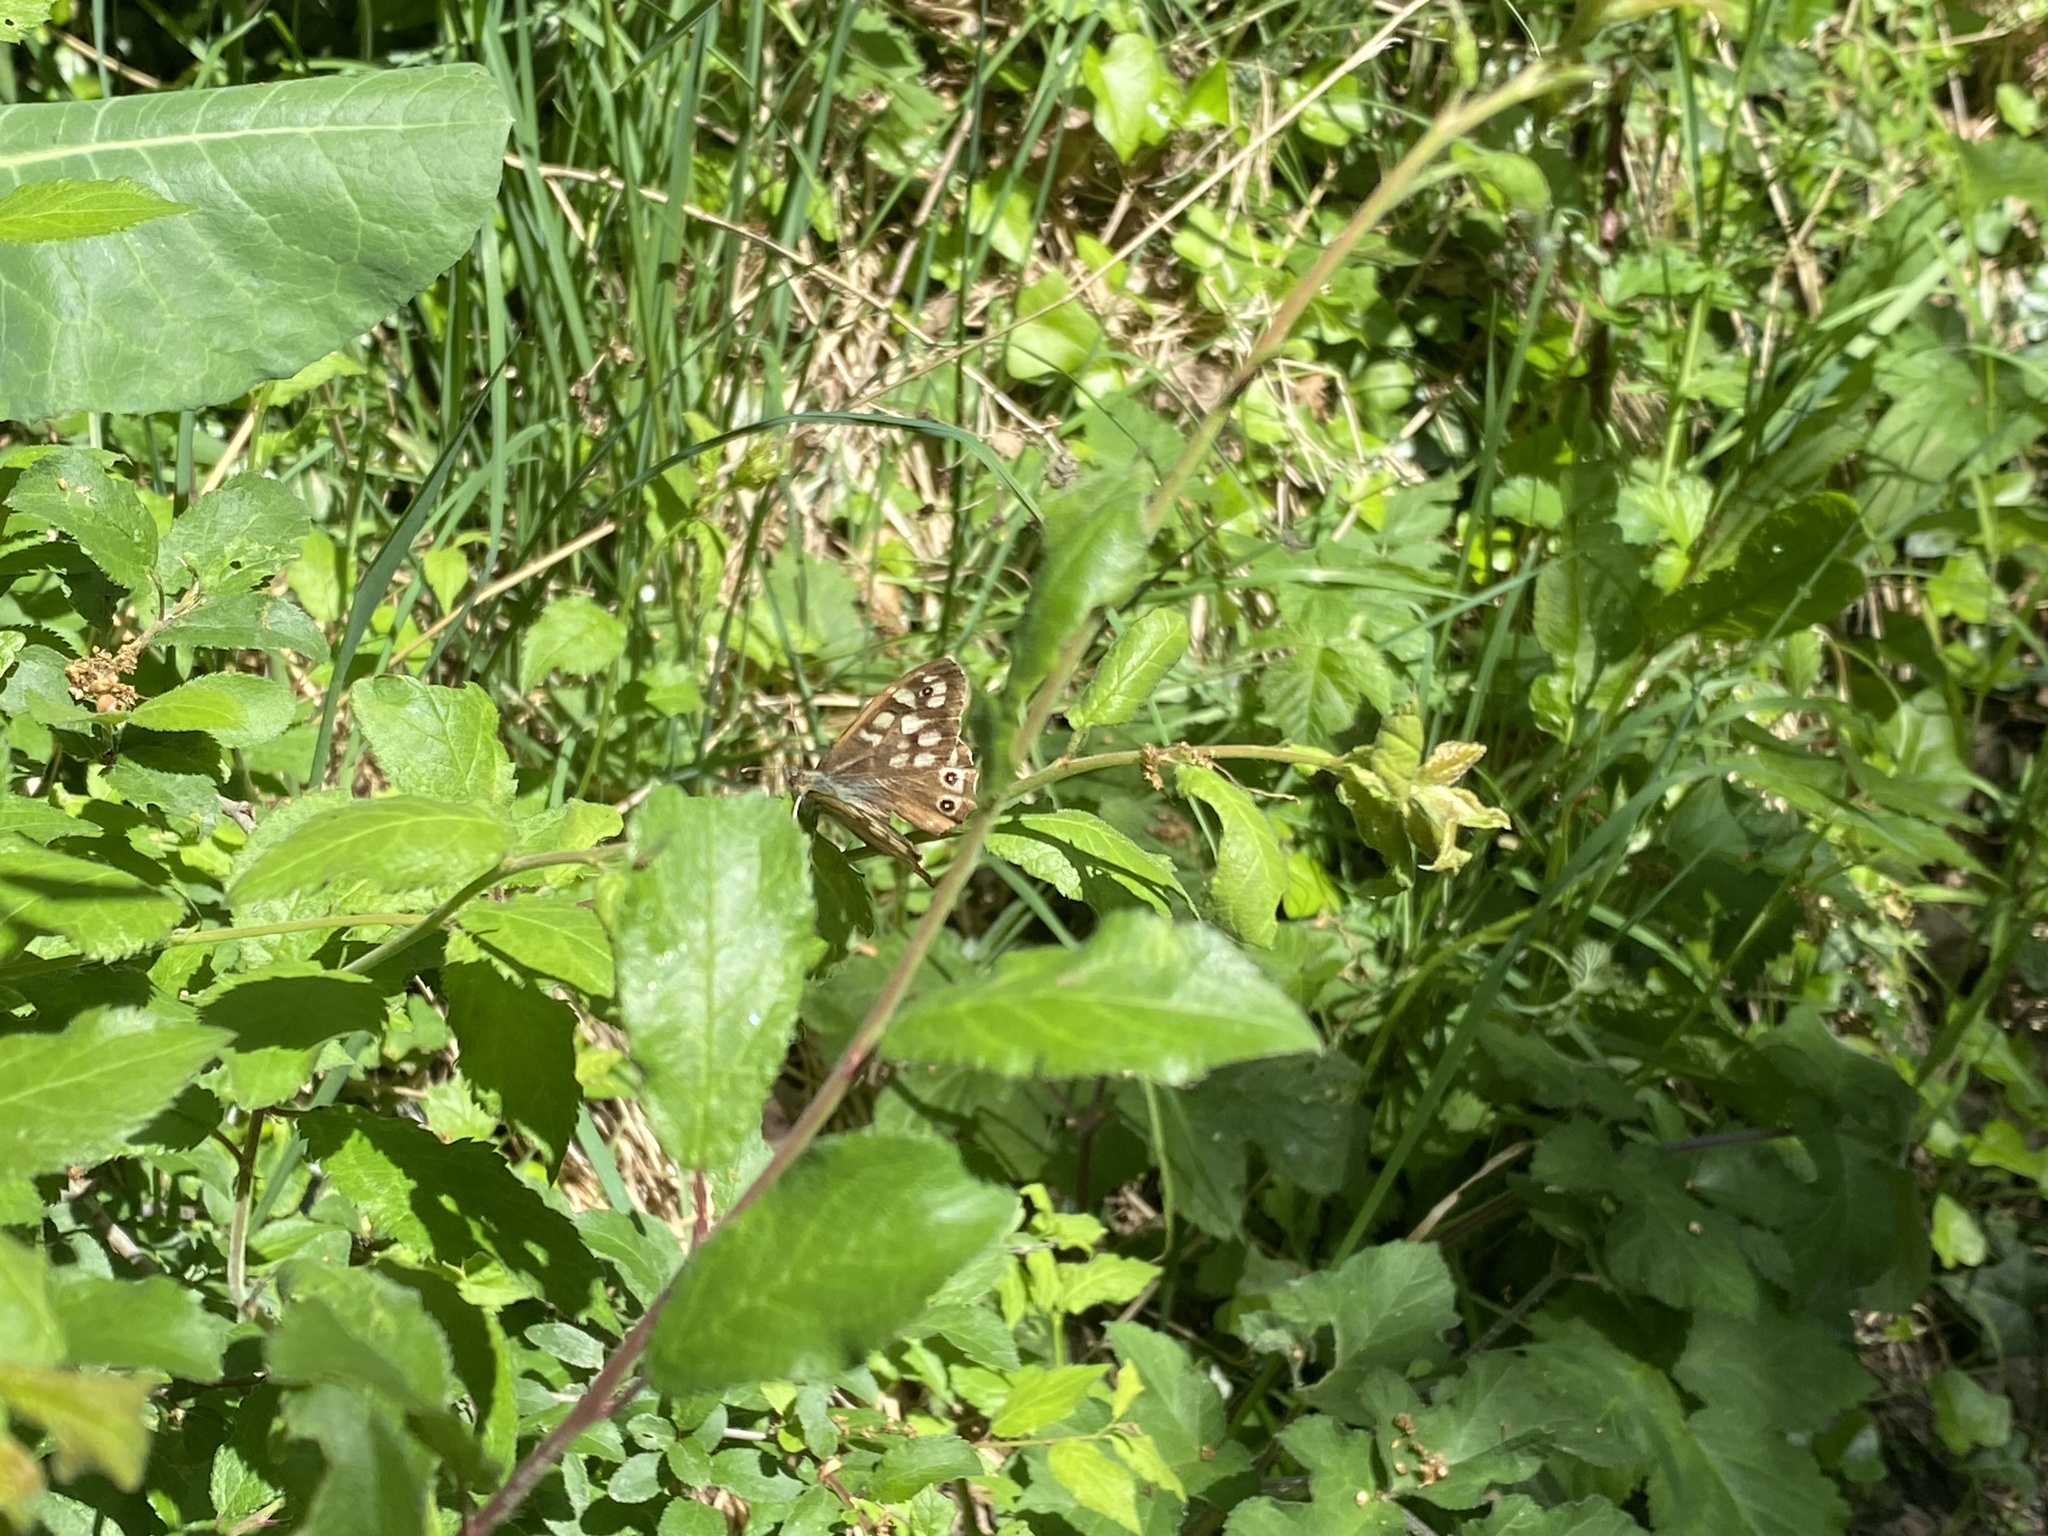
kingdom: Animalia
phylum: Arthropoda
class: Insecta
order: Lepidoptera
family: Nymphalidae
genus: Pararge
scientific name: Pararge aegeria
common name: Speckled wood
